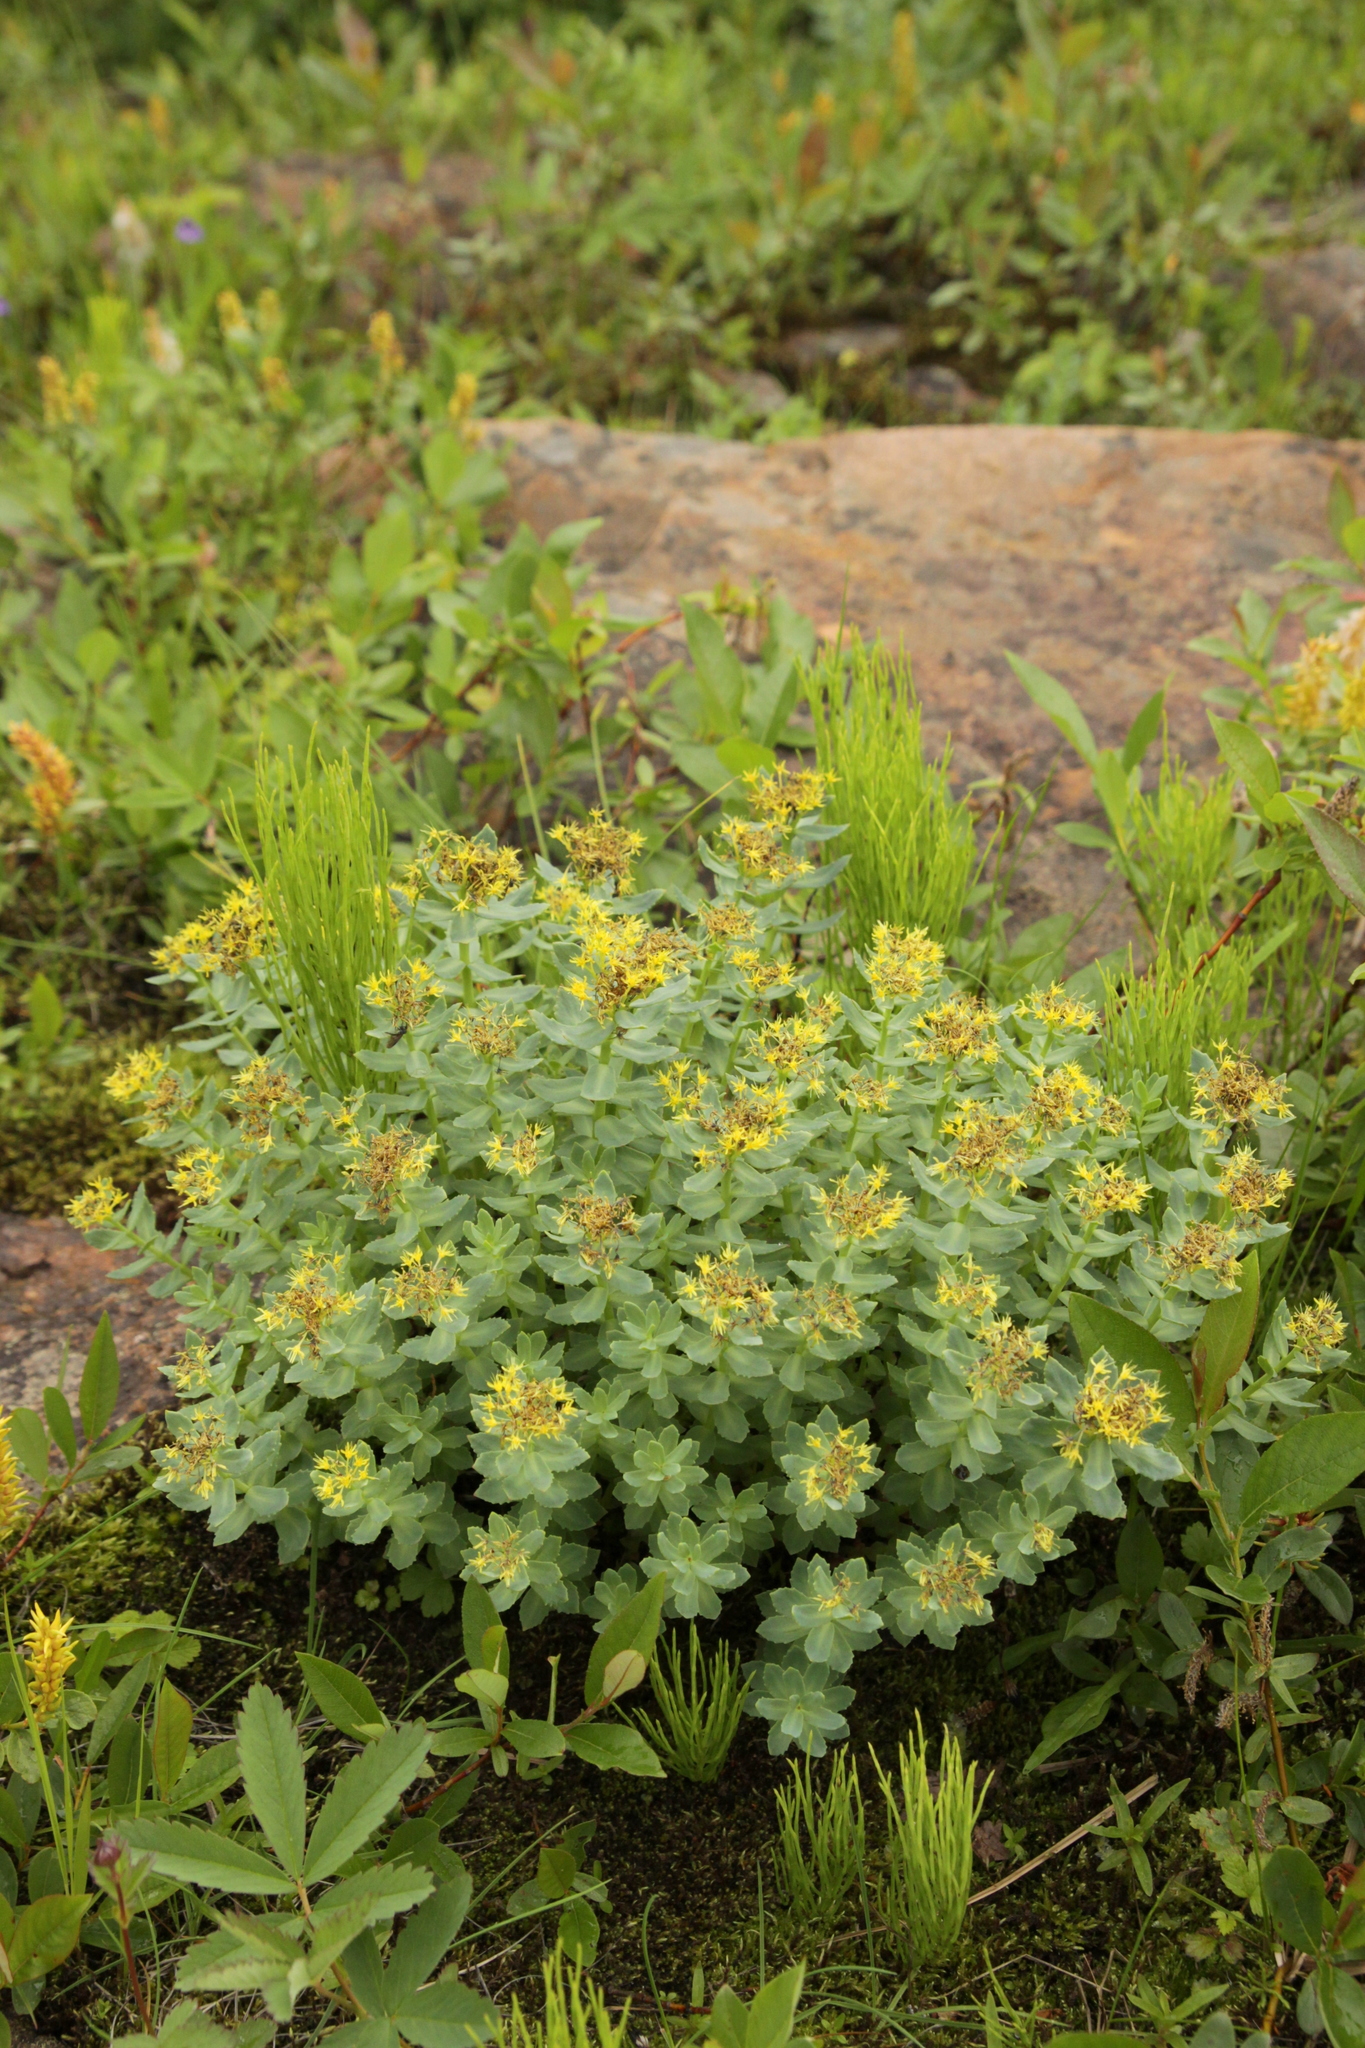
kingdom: Plantae
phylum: Tracheophyta
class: Magnoliopsida
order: Saxifragales
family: Crassulaceae
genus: Rhodiola
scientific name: Rhodiola rosea
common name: Roseroot
